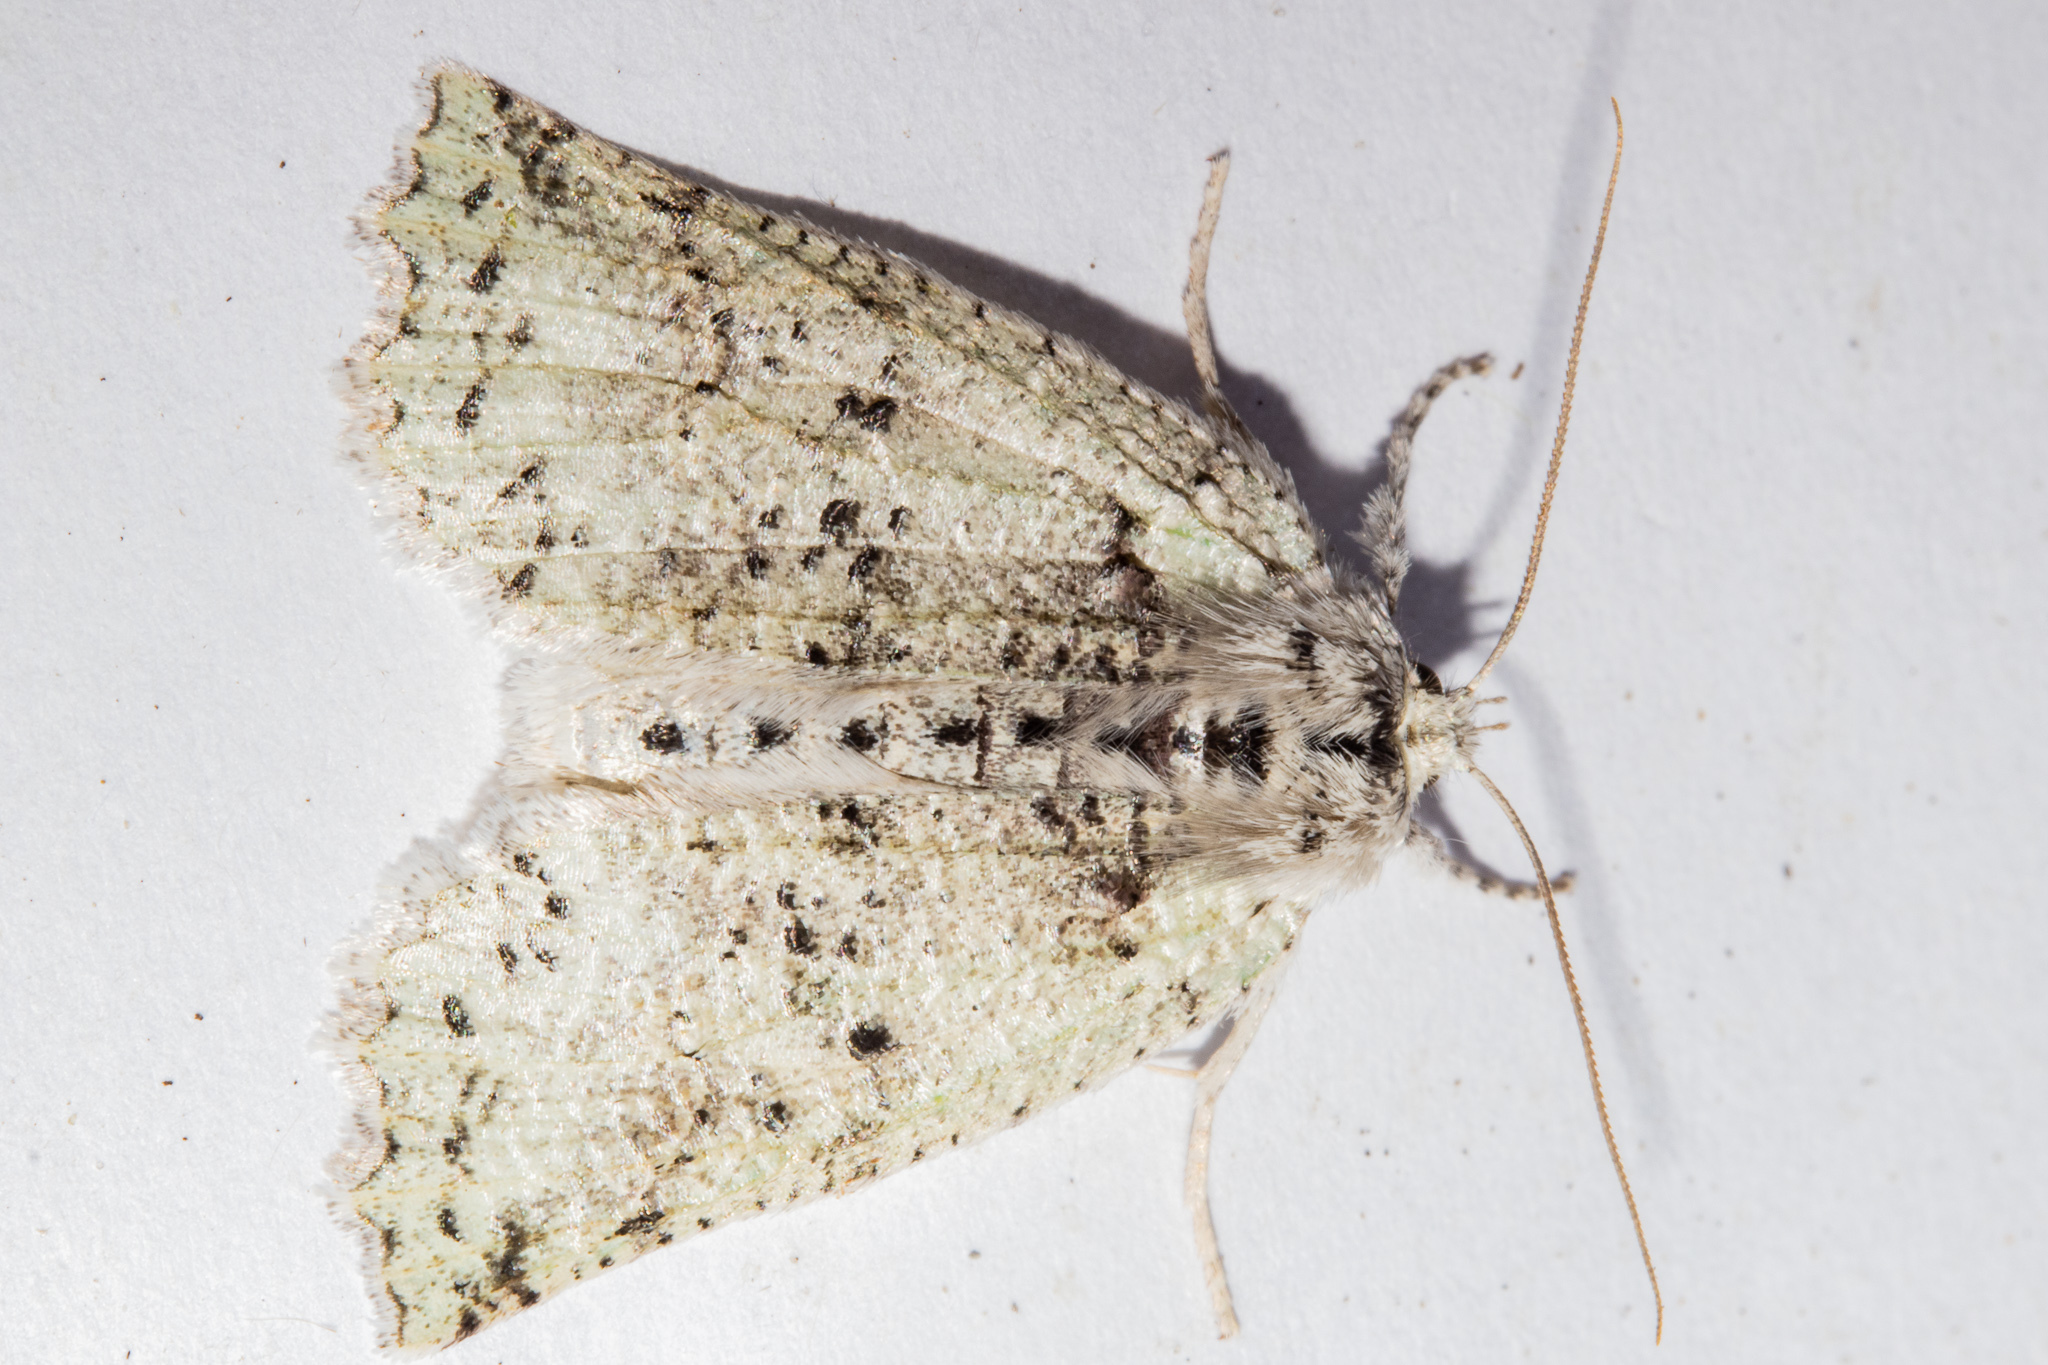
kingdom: Animalia
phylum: Arthropoda
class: Insecta
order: Lepidoptera
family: Geometridae
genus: Declana
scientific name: Declana floccosa
